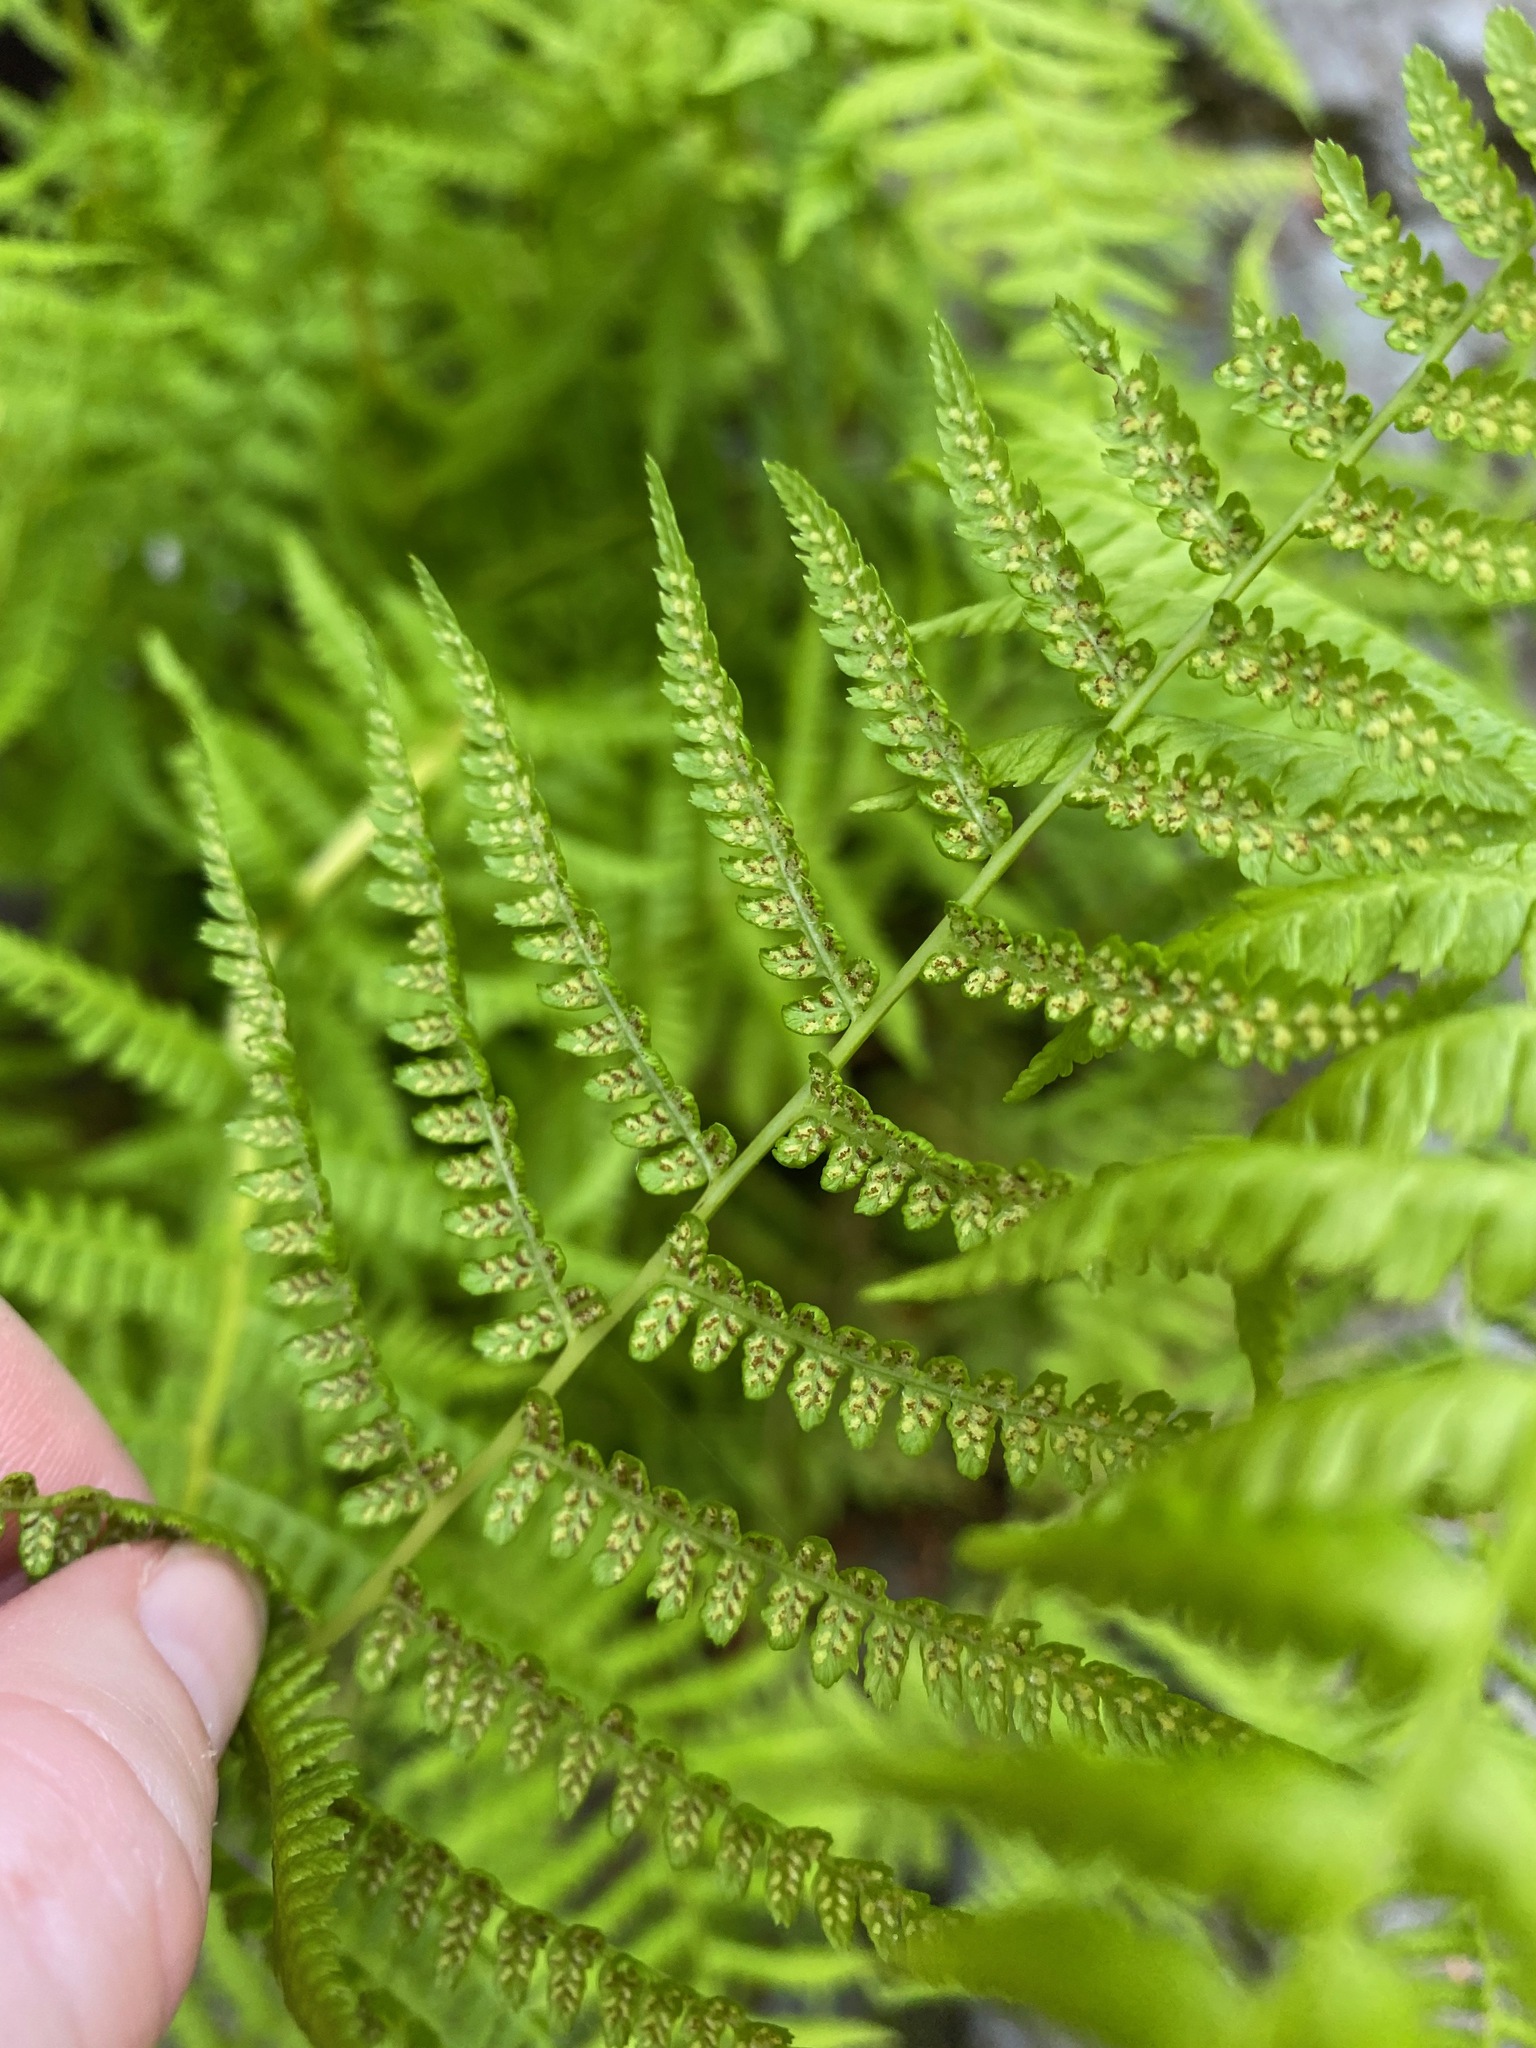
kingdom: Plantae
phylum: Tracheophyta
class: Polypodiopsida
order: Polypodiales
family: Athyriaceae
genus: Athyrium
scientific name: Athyrium filix-femina
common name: Lady fern
